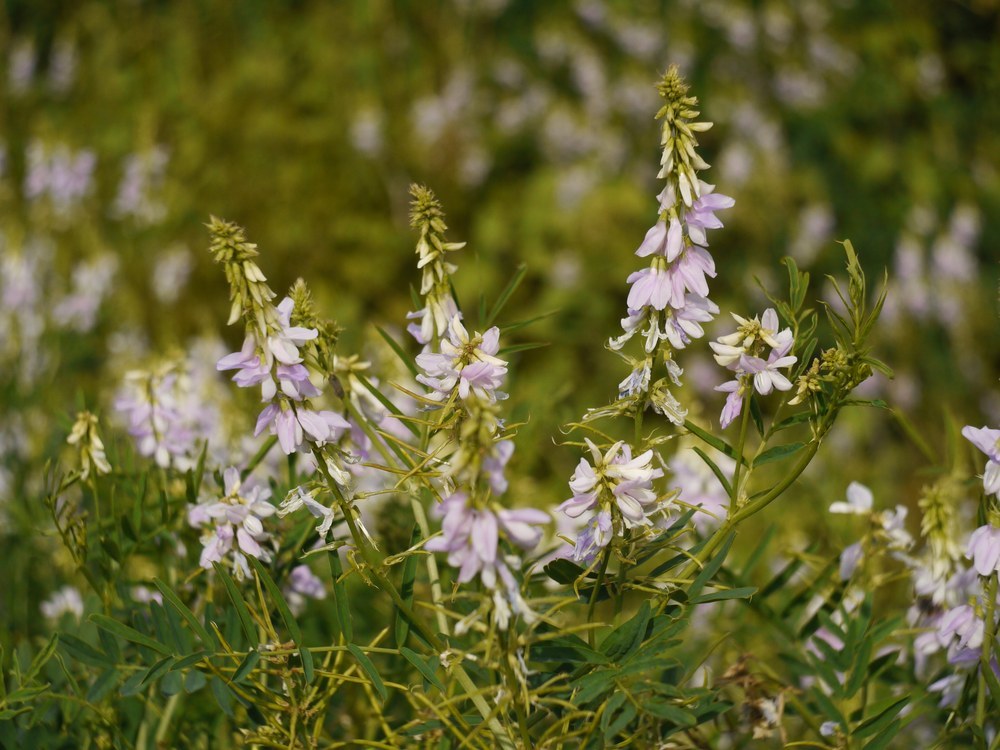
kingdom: Plantae
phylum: Tracheophyta
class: Magnoliopsida
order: Fabales
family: Fabaceae
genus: Galega
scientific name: Galega officinalis
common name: Goat's-rue
